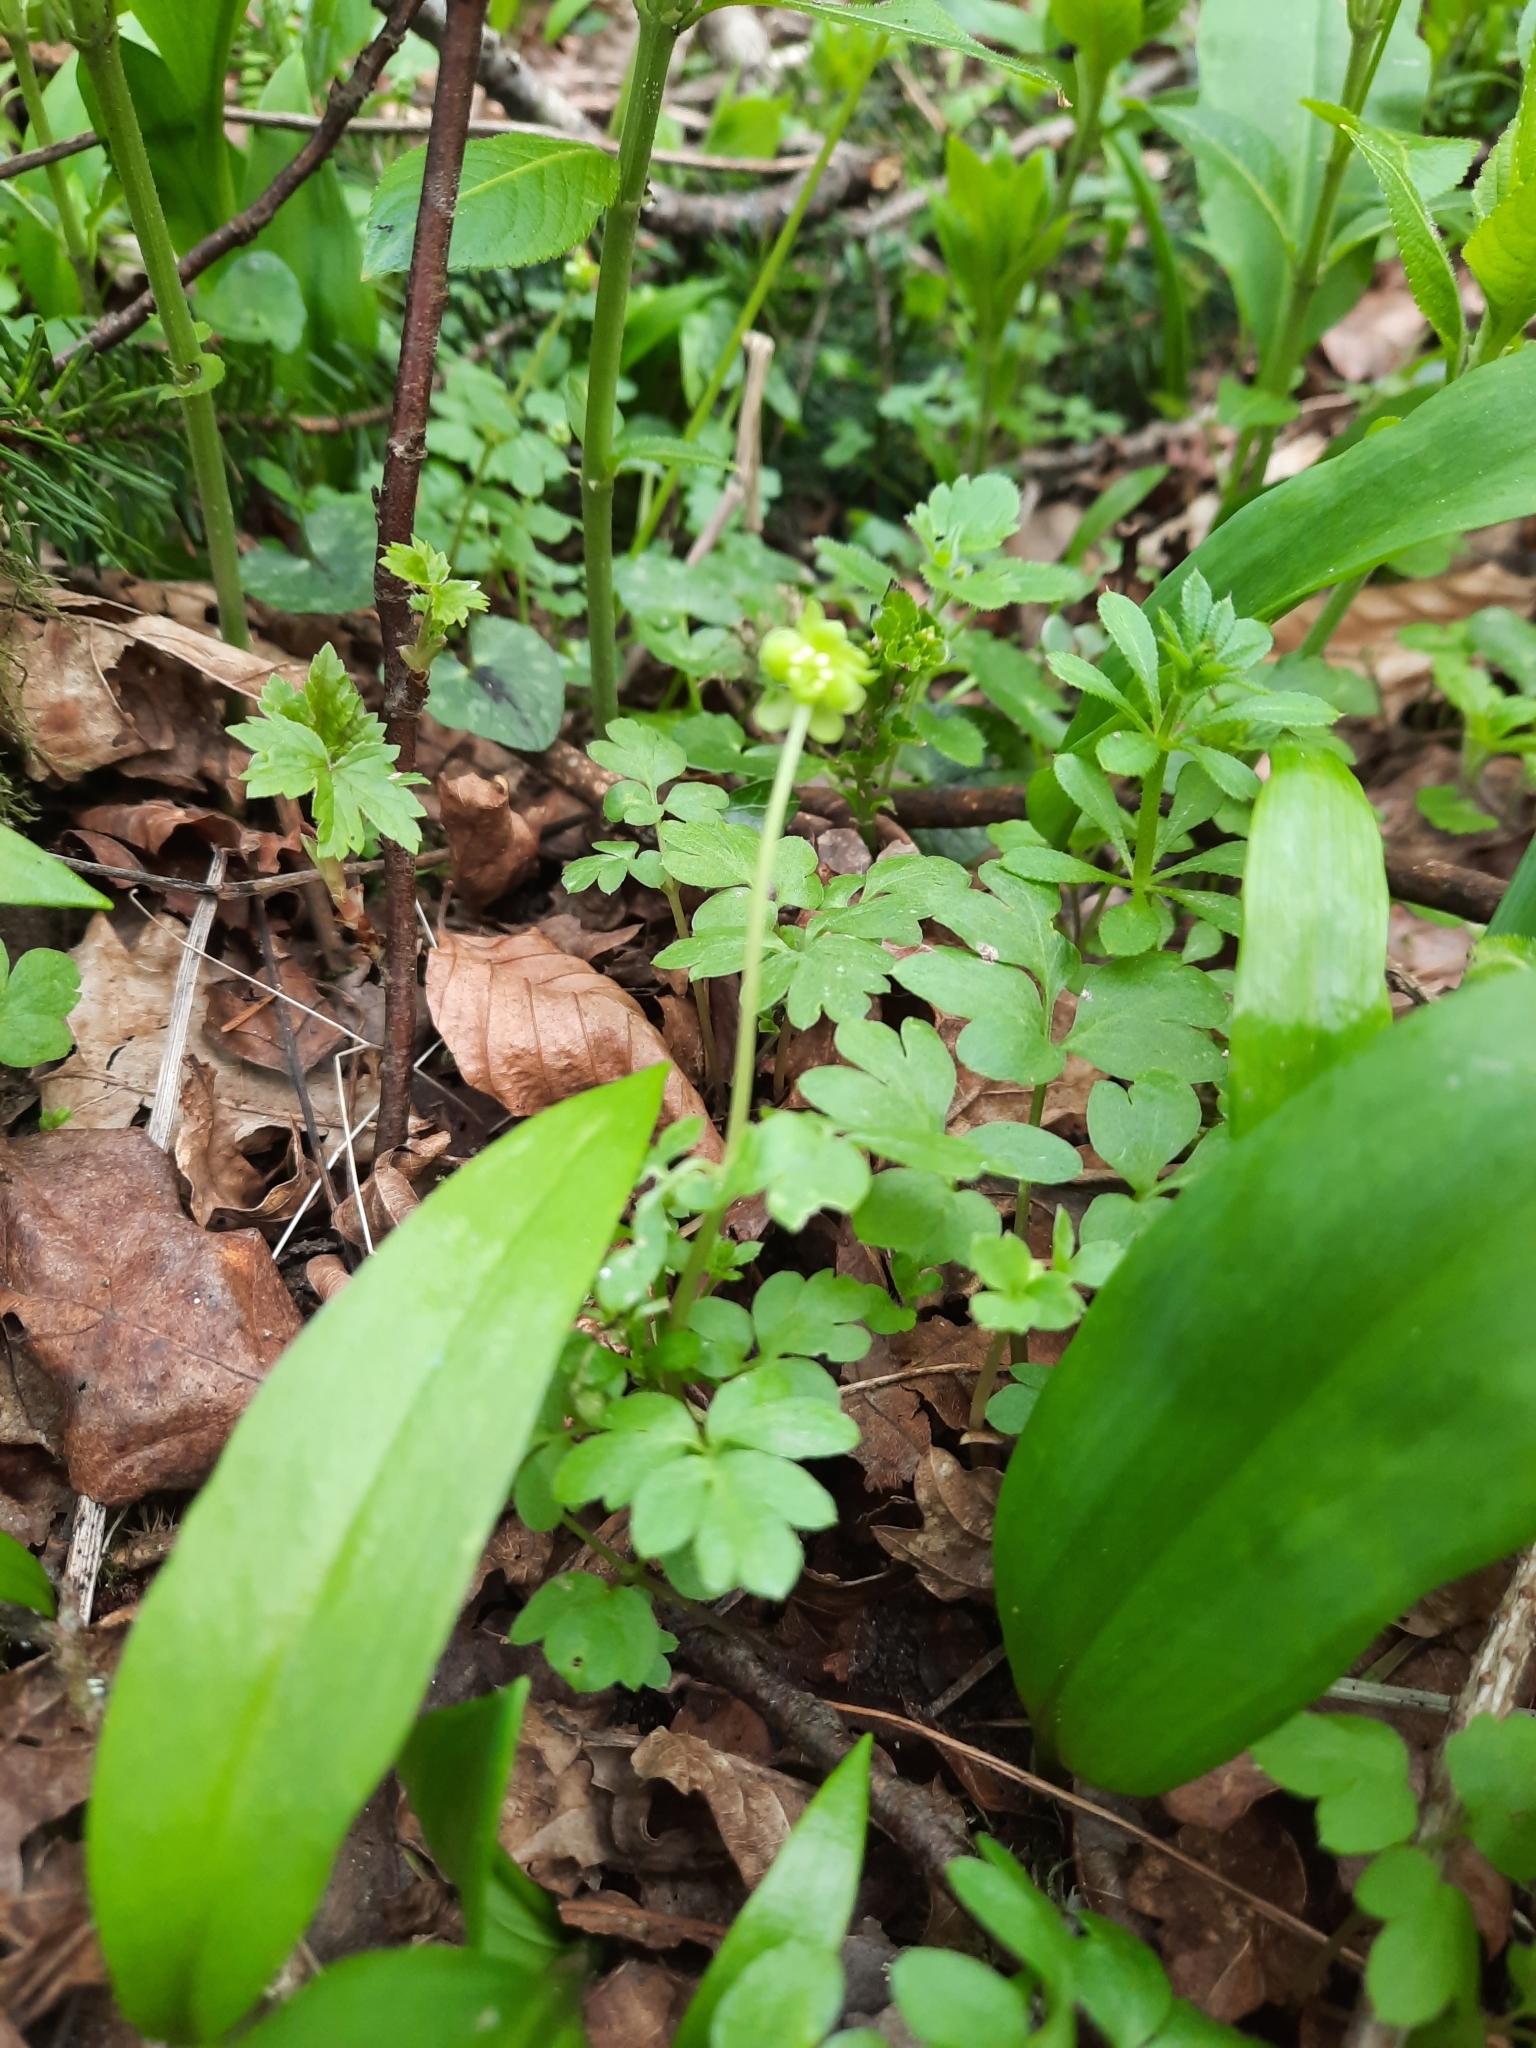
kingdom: Plantae
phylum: Tracheophyta
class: Magnoliopsida
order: Dipsacales
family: Viburnaceae
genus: Adoxa
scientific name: Adoxa moschatellina
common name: Moschatel
